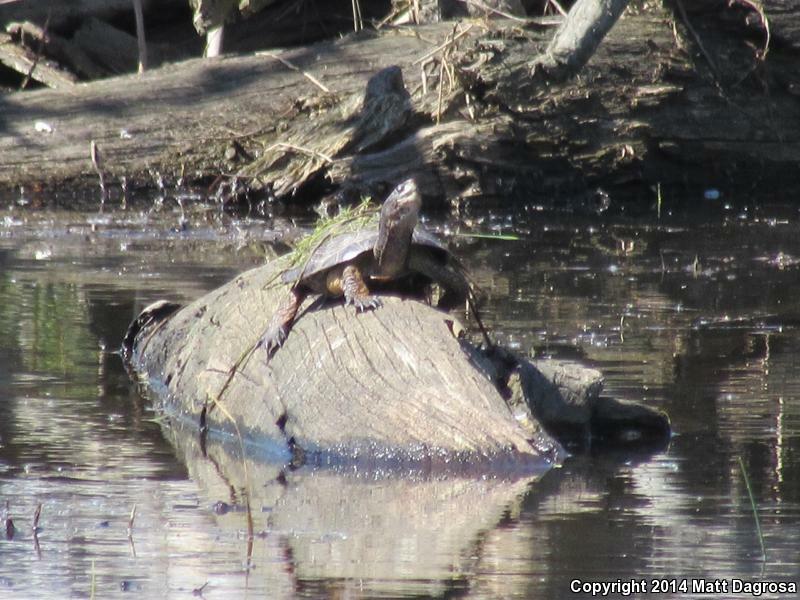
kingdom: Animalia
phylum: Chordata
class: Testudines
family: Emydidae
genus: Actinemys
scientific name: Actinemys marmorata
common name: Western pond turtle
